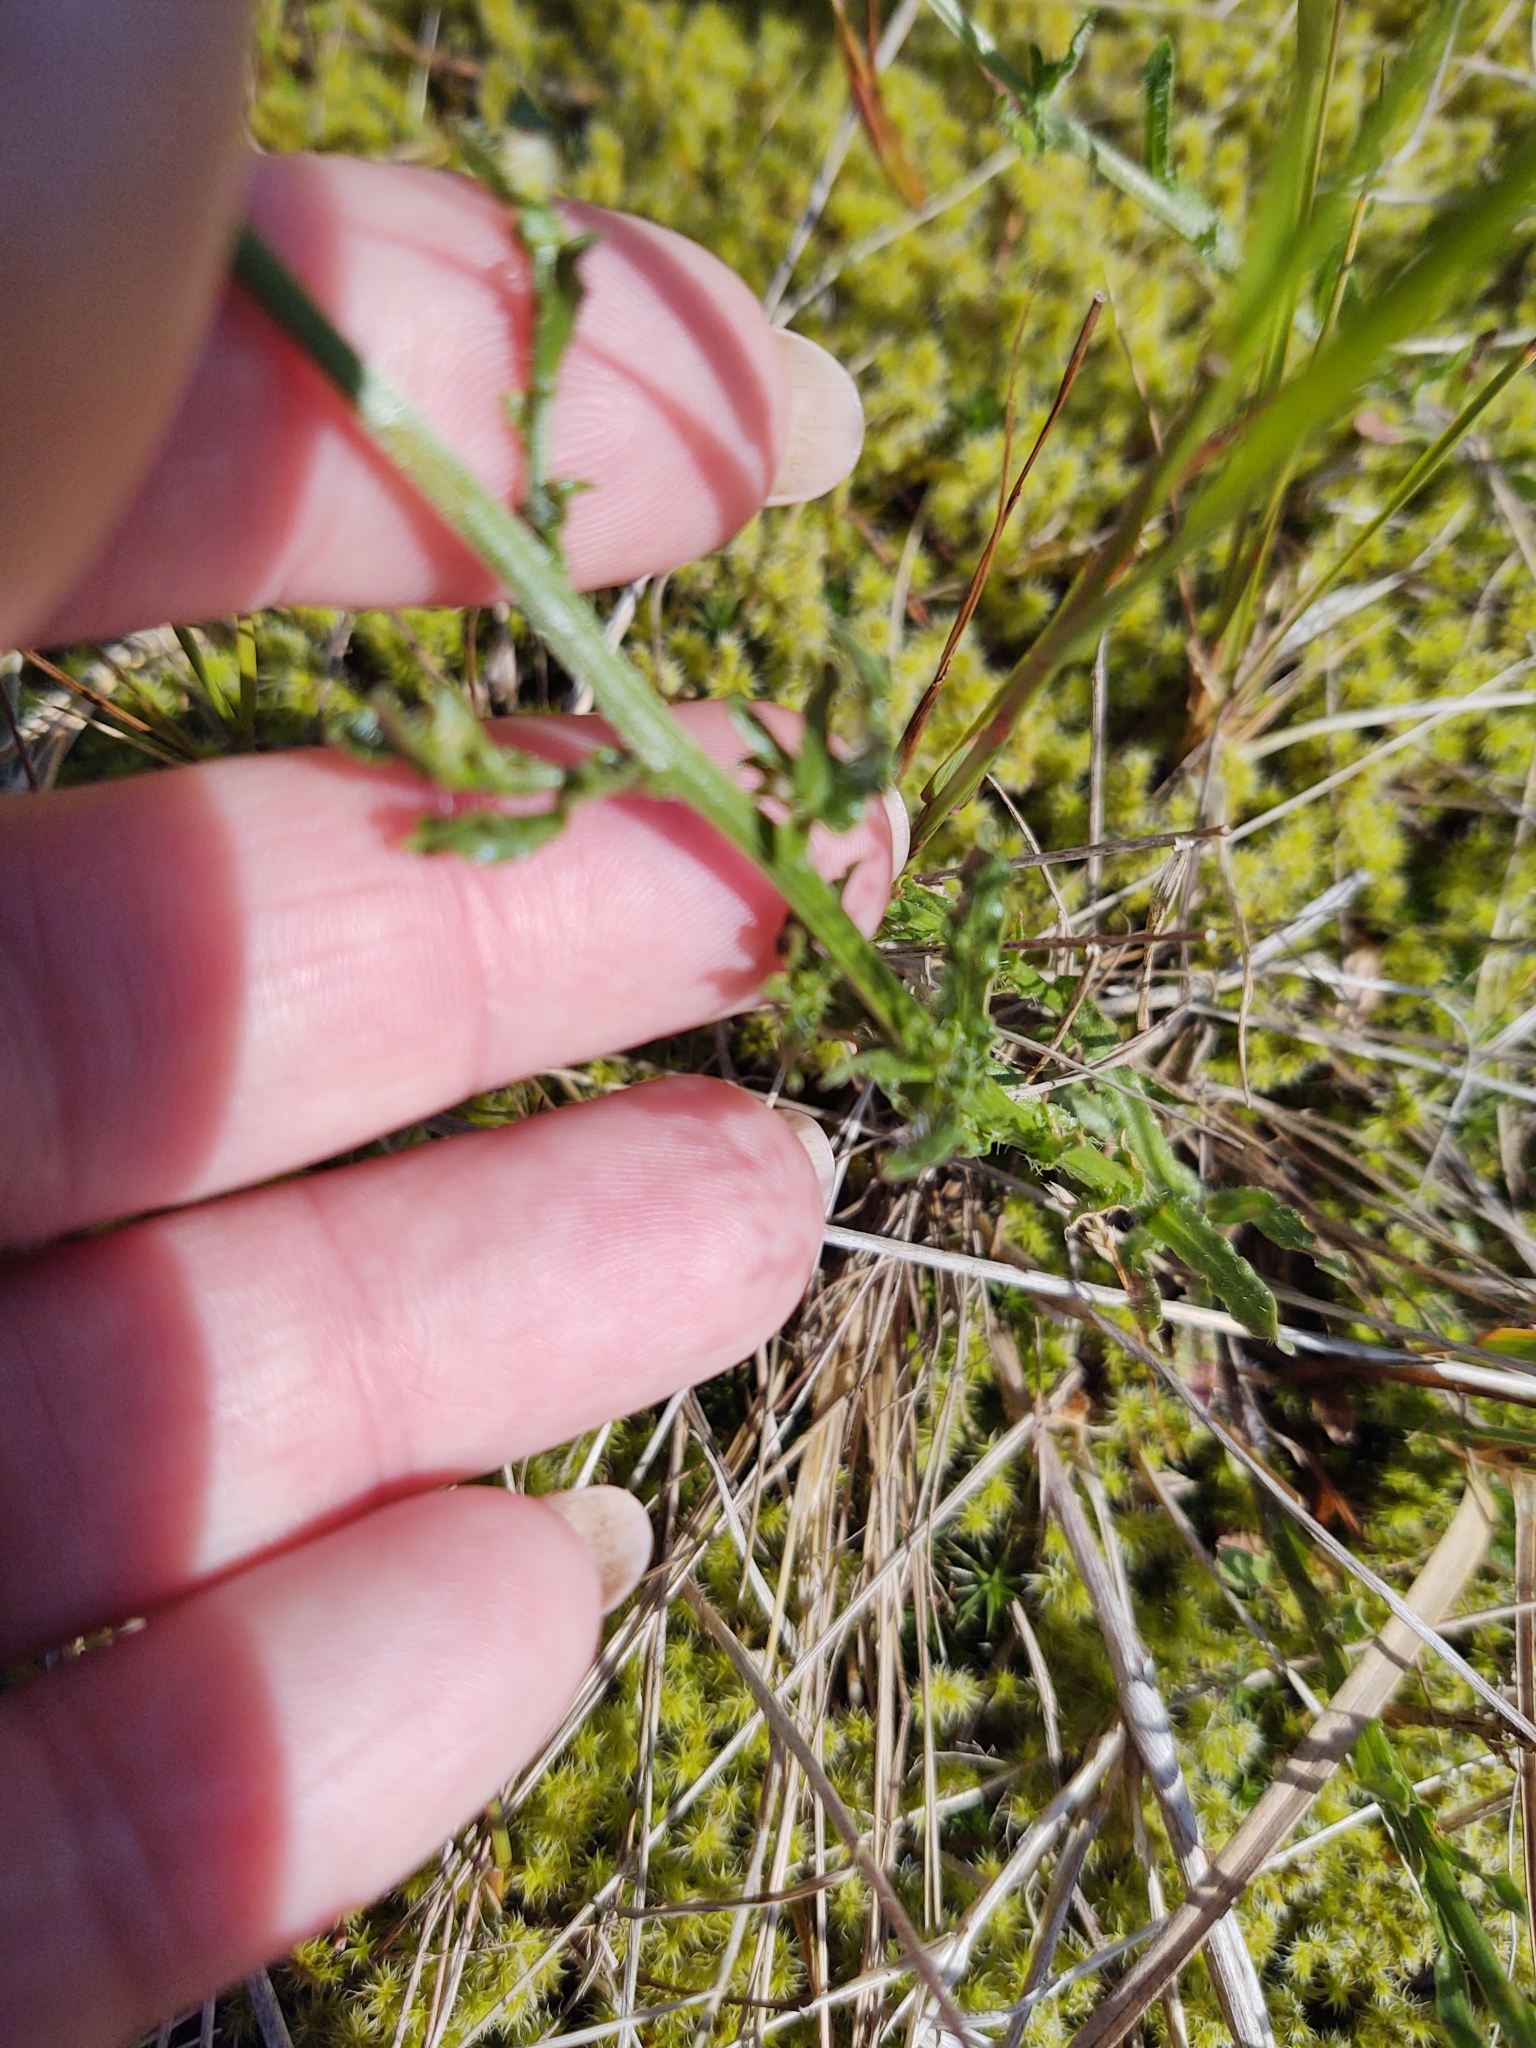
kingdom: Plantae
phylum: Tracheophyta
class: Magnoliopsida
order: Asterales
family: Campanulaceae
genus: Jasione
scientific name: Jasione montana
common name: Sheep's-bit
